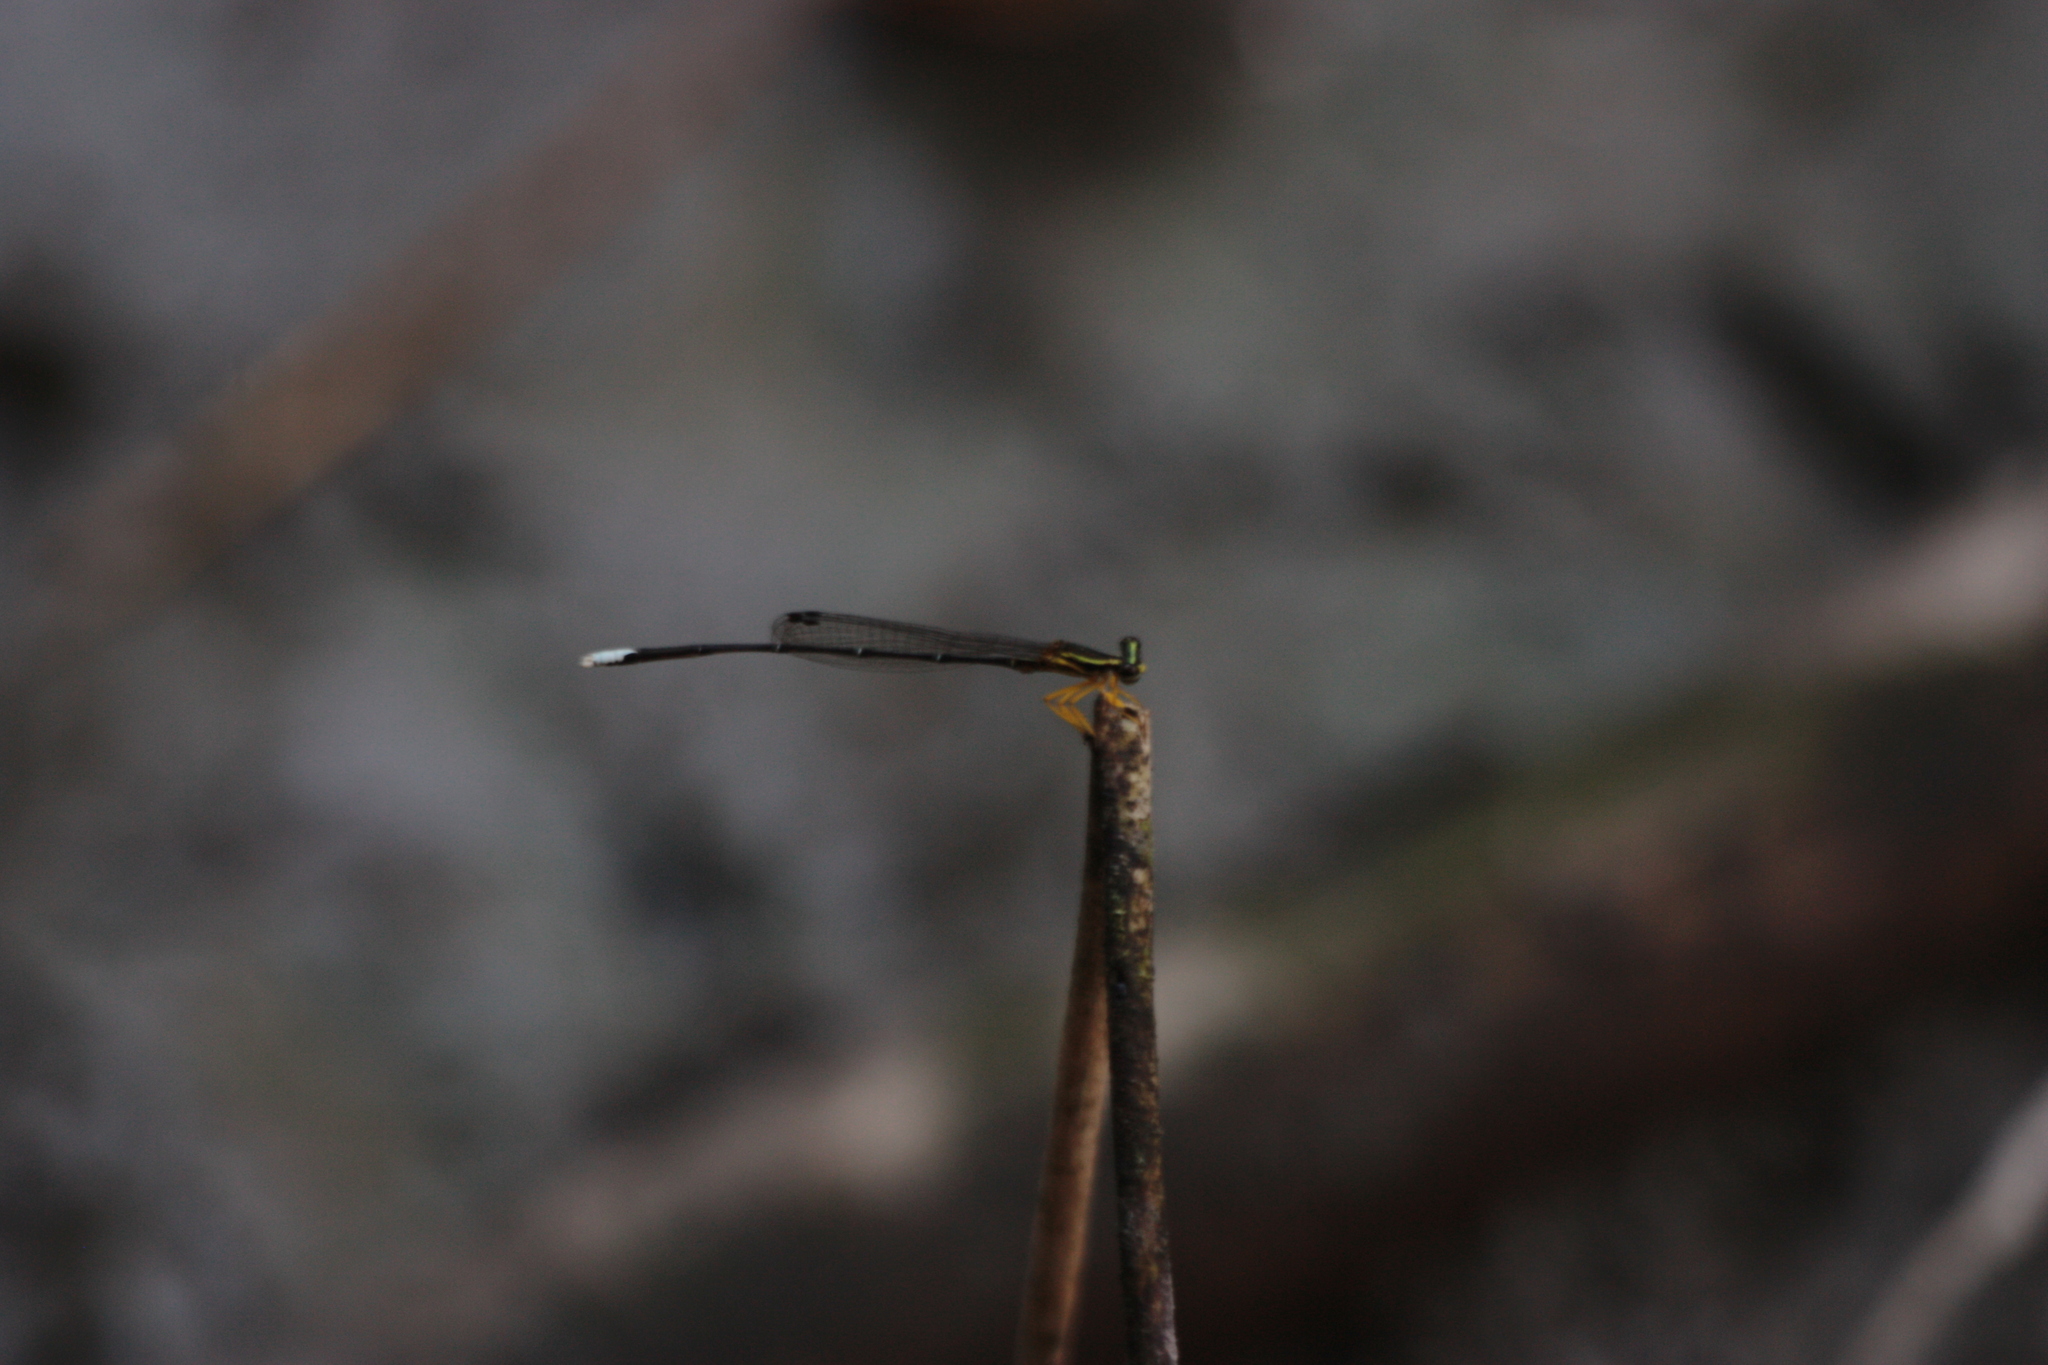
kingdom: Animalia
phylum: Arthropoda
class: Insecta
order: Odonata
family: Platycnemididae
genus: Copera
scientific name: Copera marginipes
